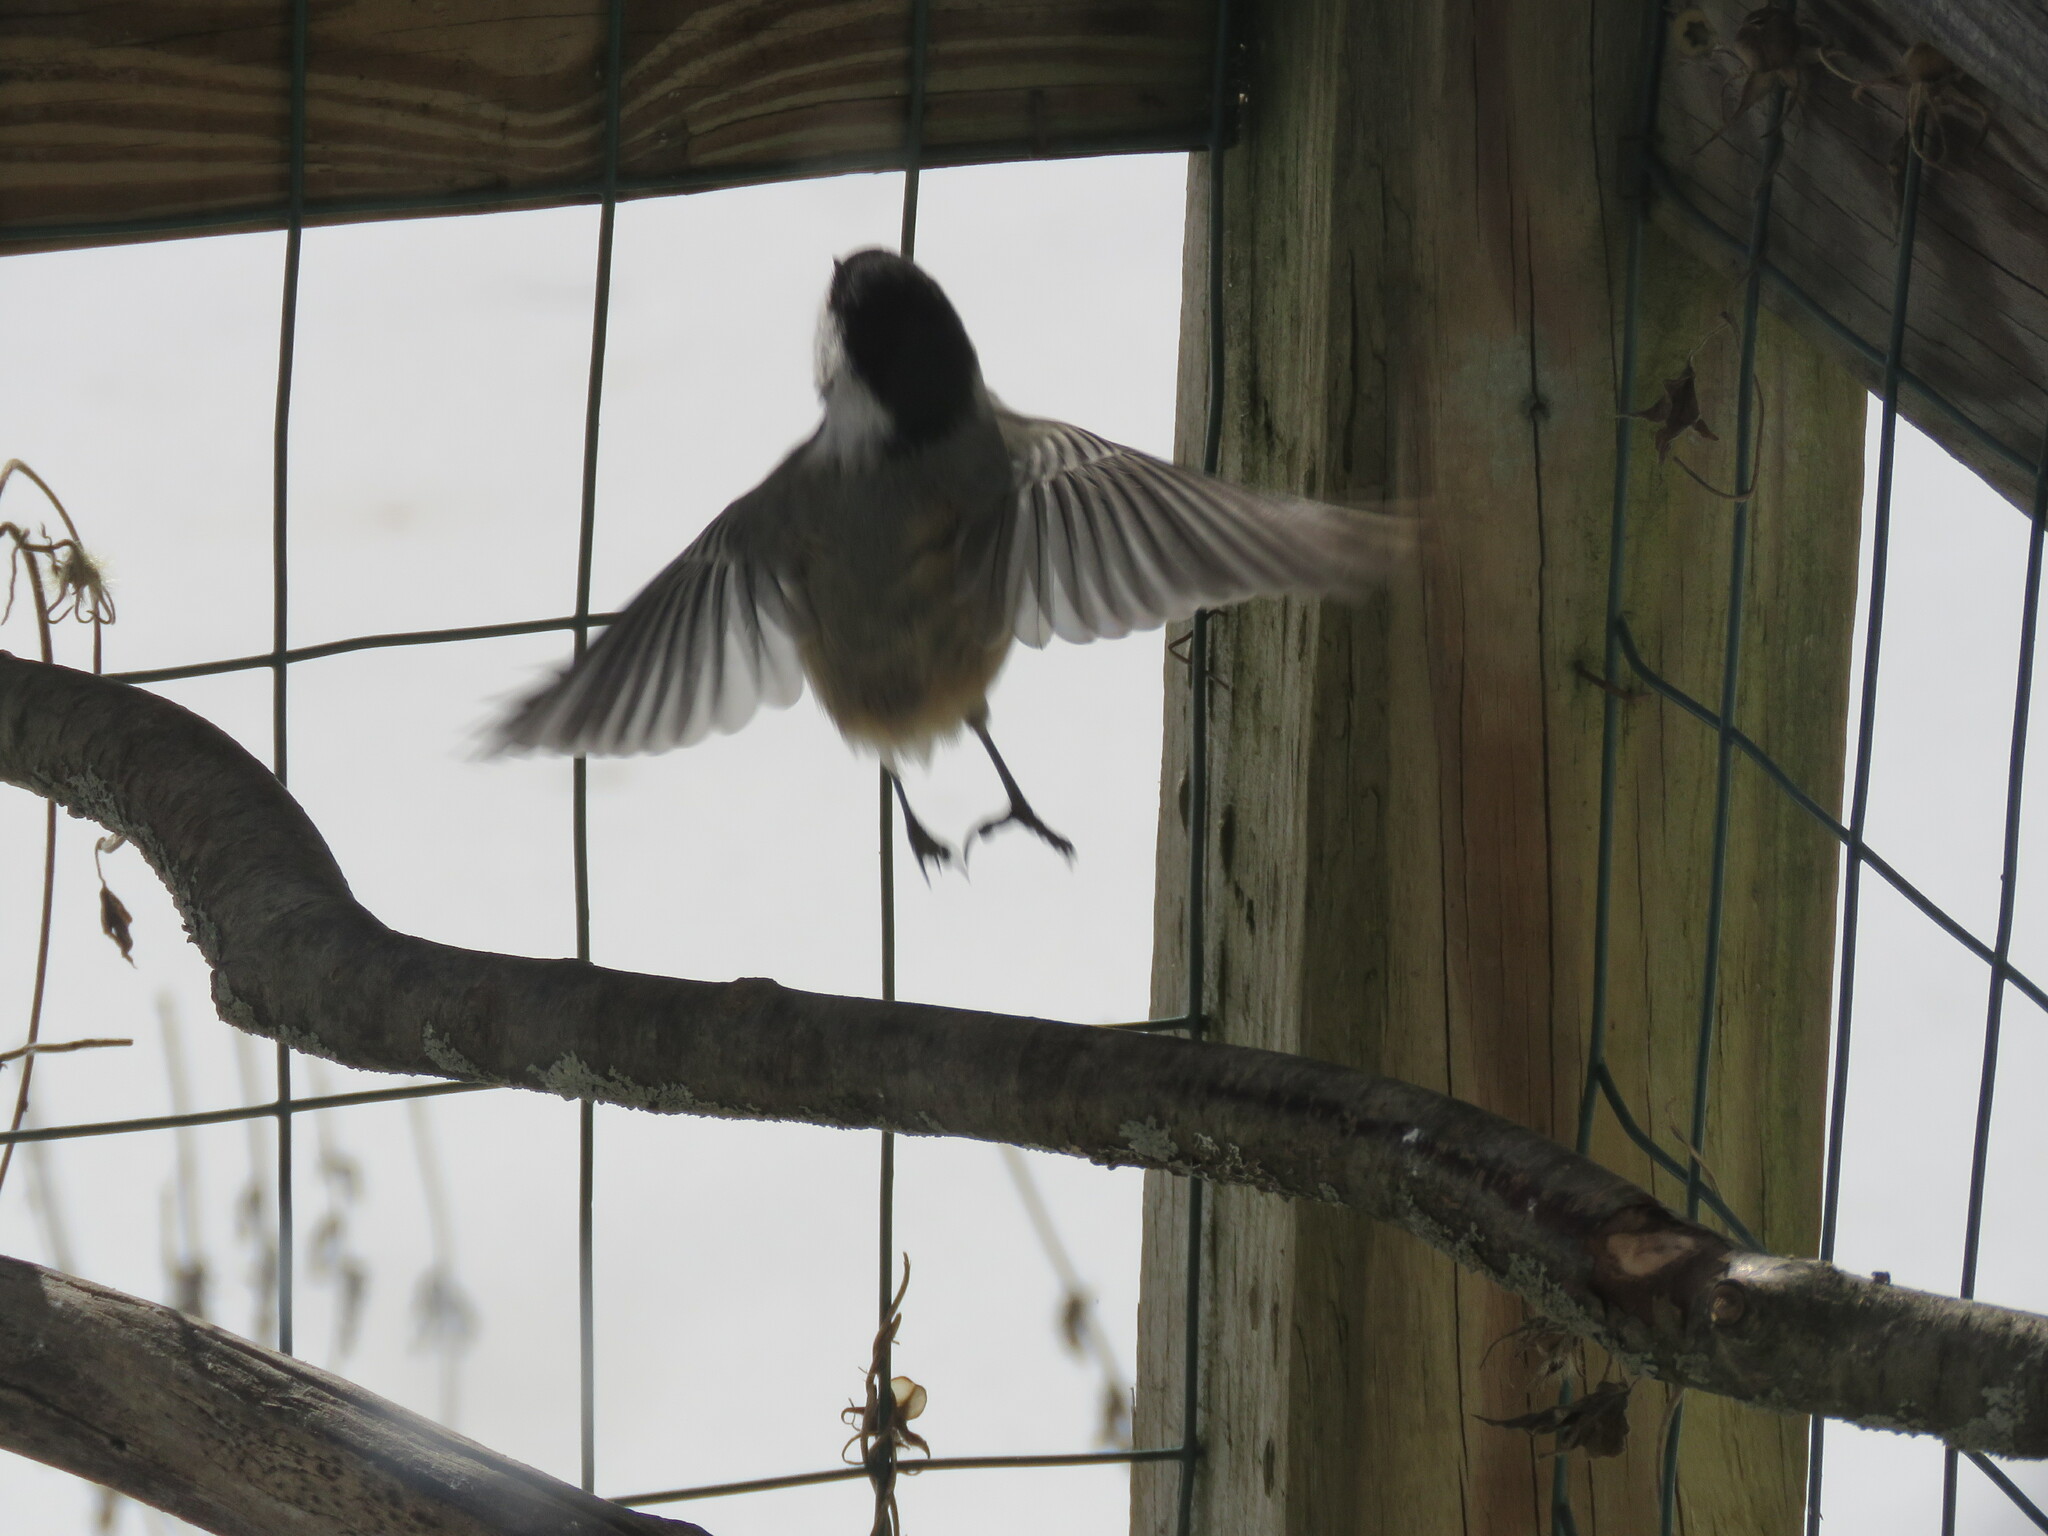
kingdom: Animalia
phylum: Chordata
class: Aves
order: Passeriformes
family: Paridae
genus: Poecile
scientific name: Poecile atricapillus
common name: Black-capped chickadee
